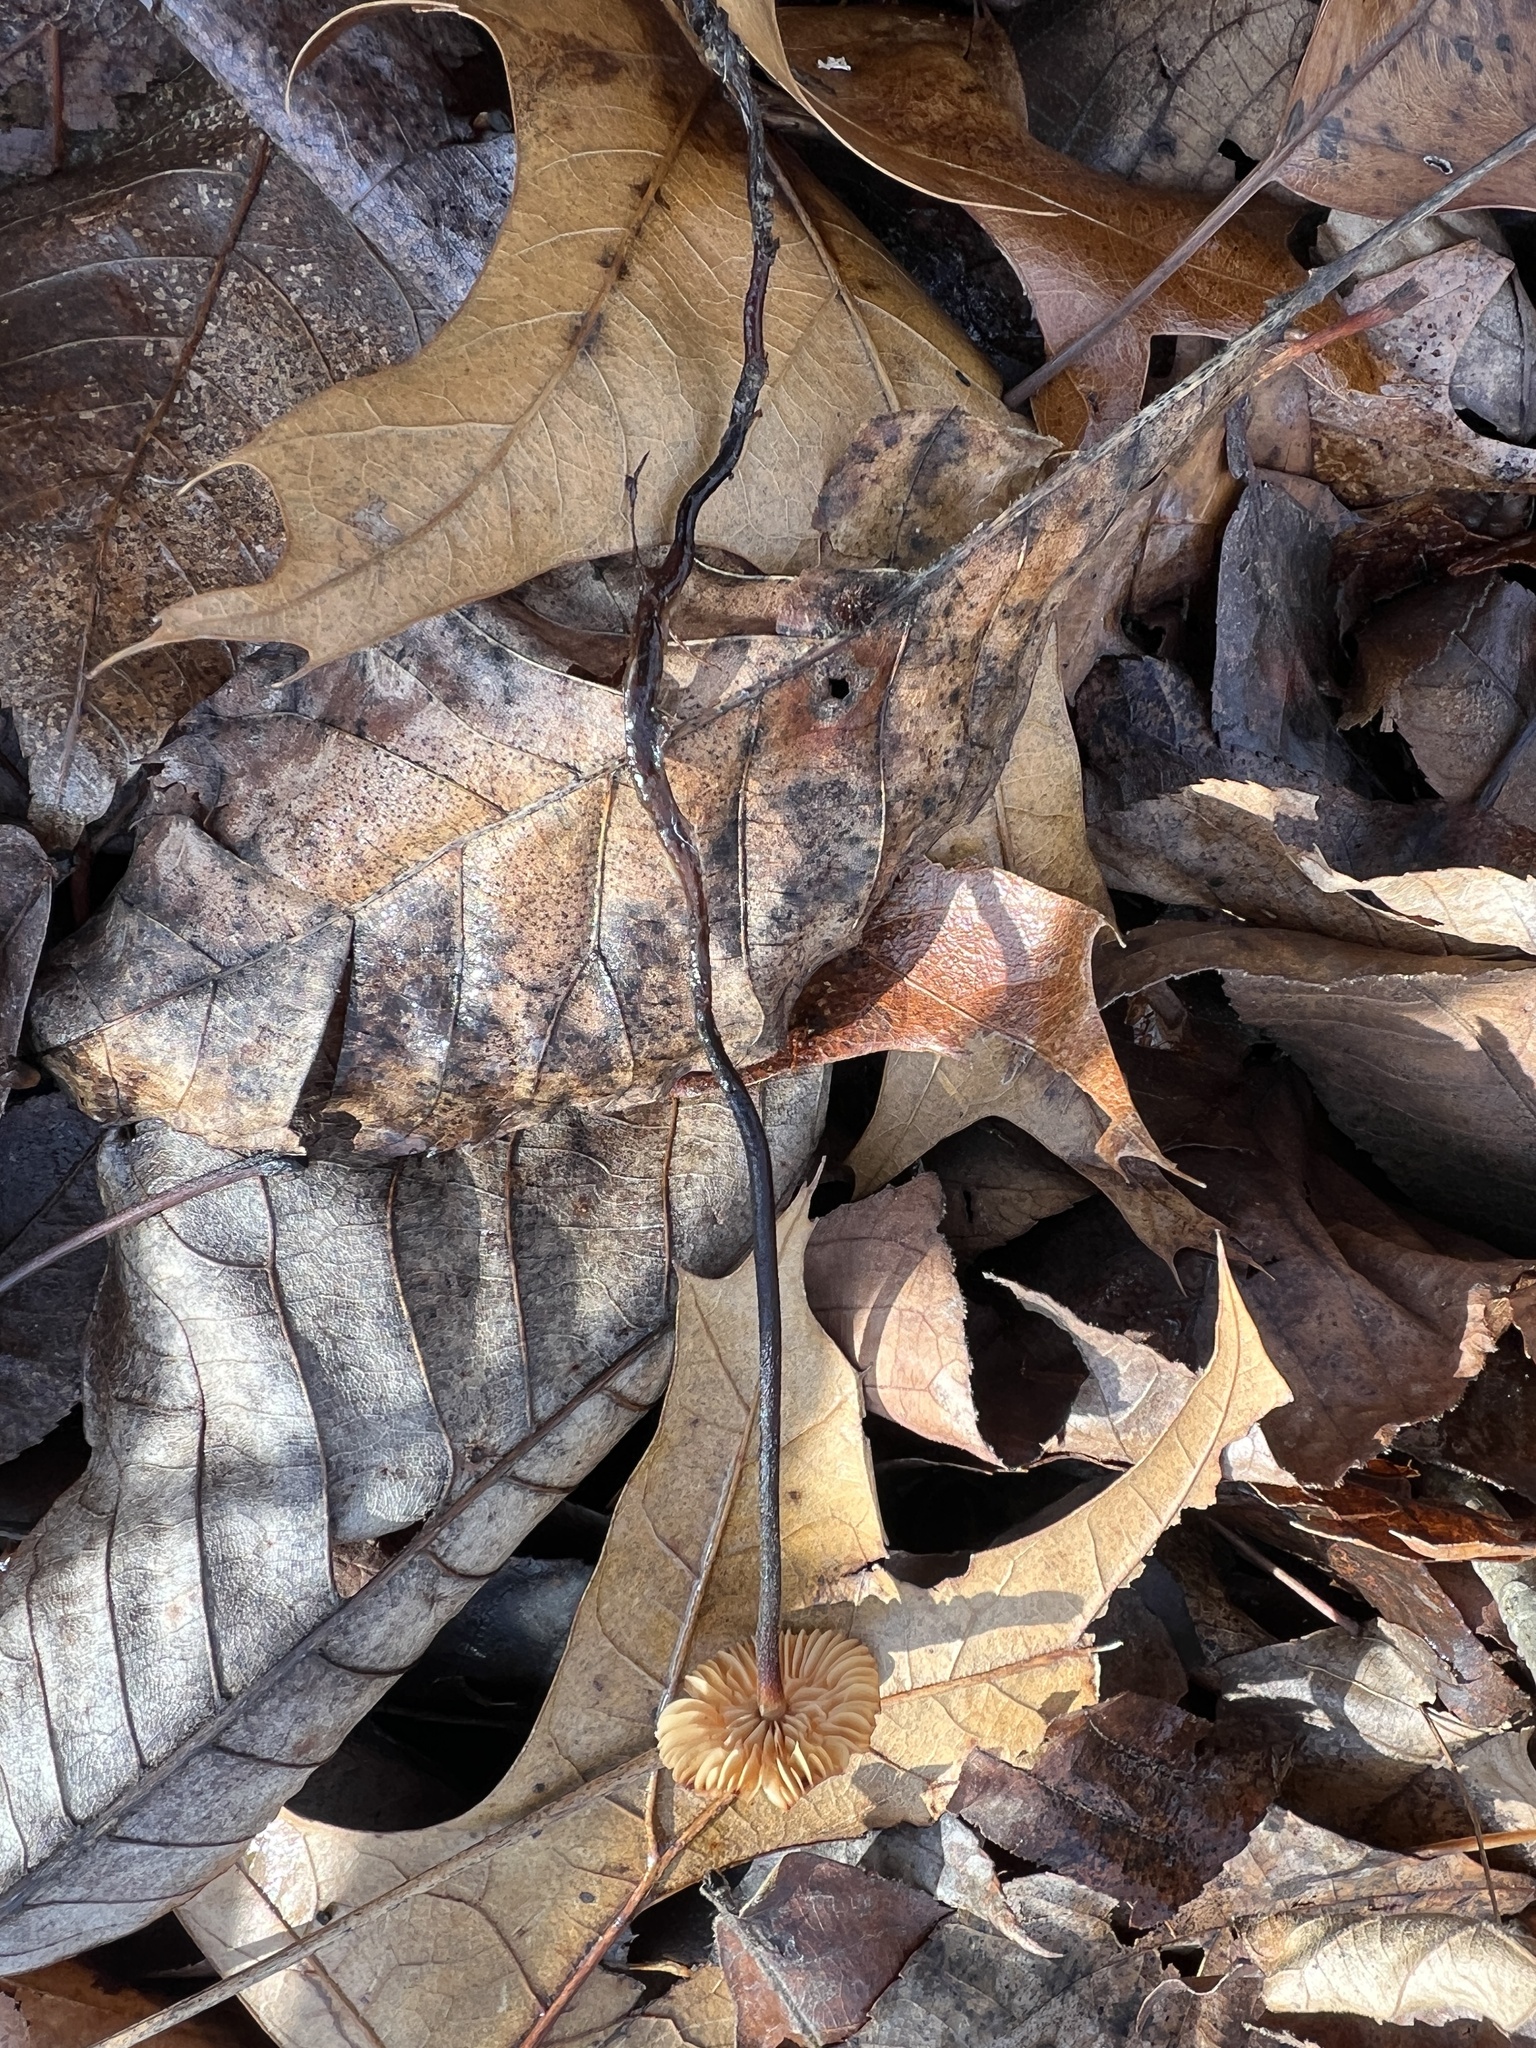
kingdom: Fungi
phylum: Basidiomycota
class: Agaricomycetes
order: Agaricales
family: Physalacriaceae
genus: Rhizomarasmius
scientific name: Rhizomarasmius pyrrhocephalus
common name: Hairy long stem marasmius
